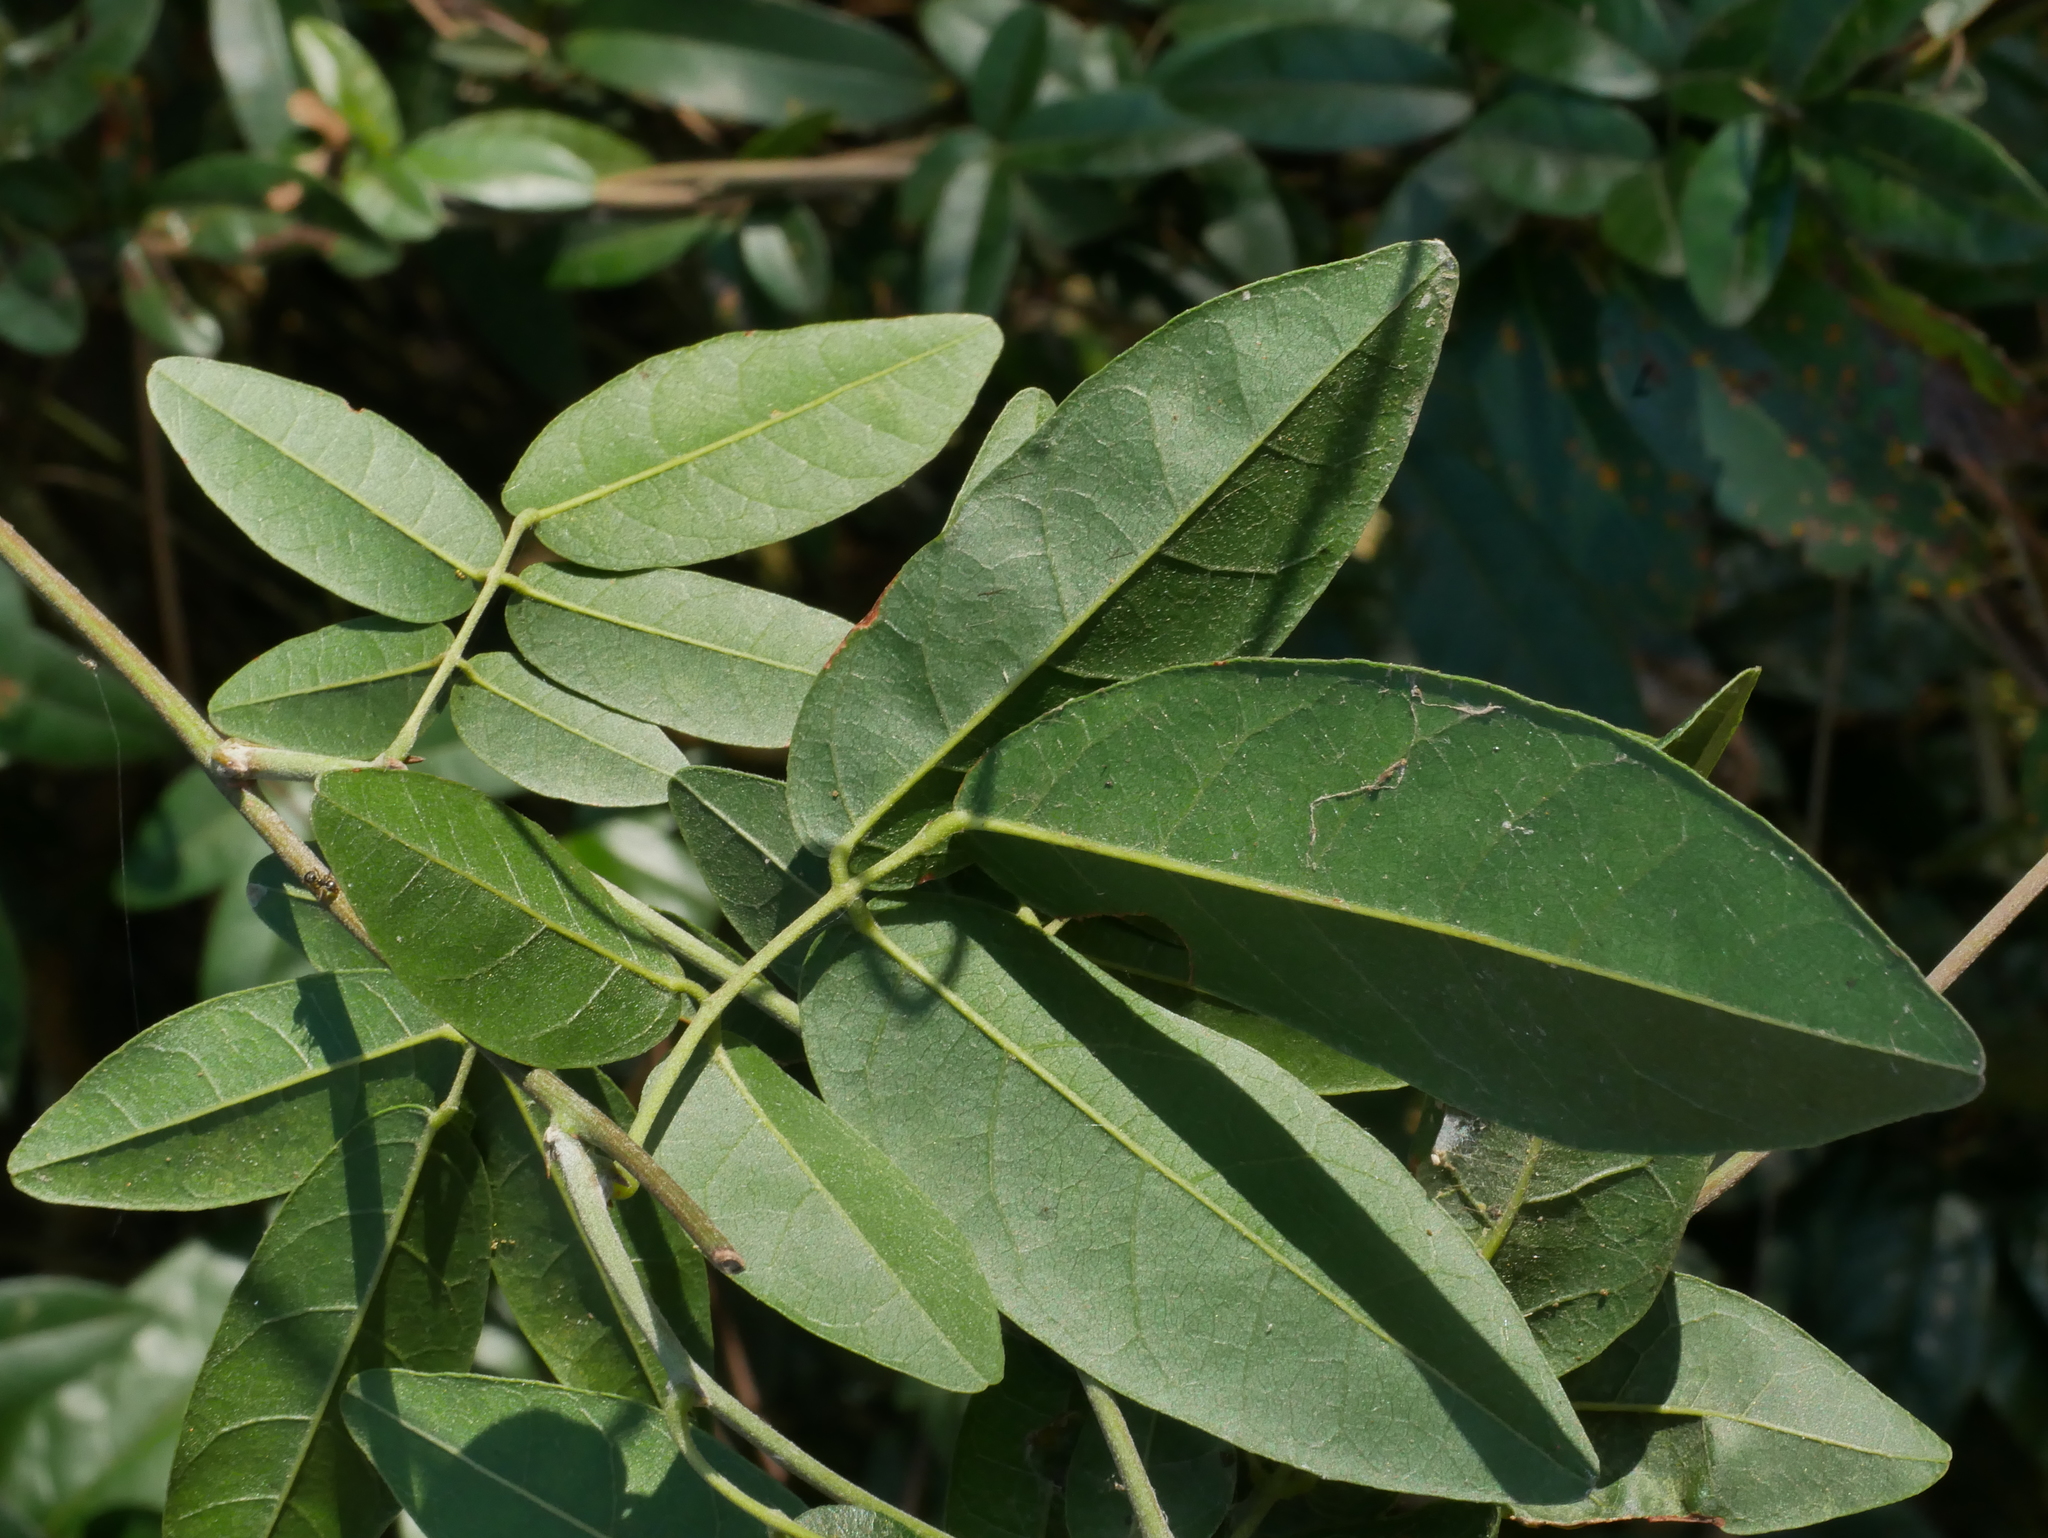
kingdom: Plantae
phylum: Tracheophyta
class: Magnoliopsida
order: Fabales
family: Fabaceae
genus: Callerya
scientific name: Callerya nitida
